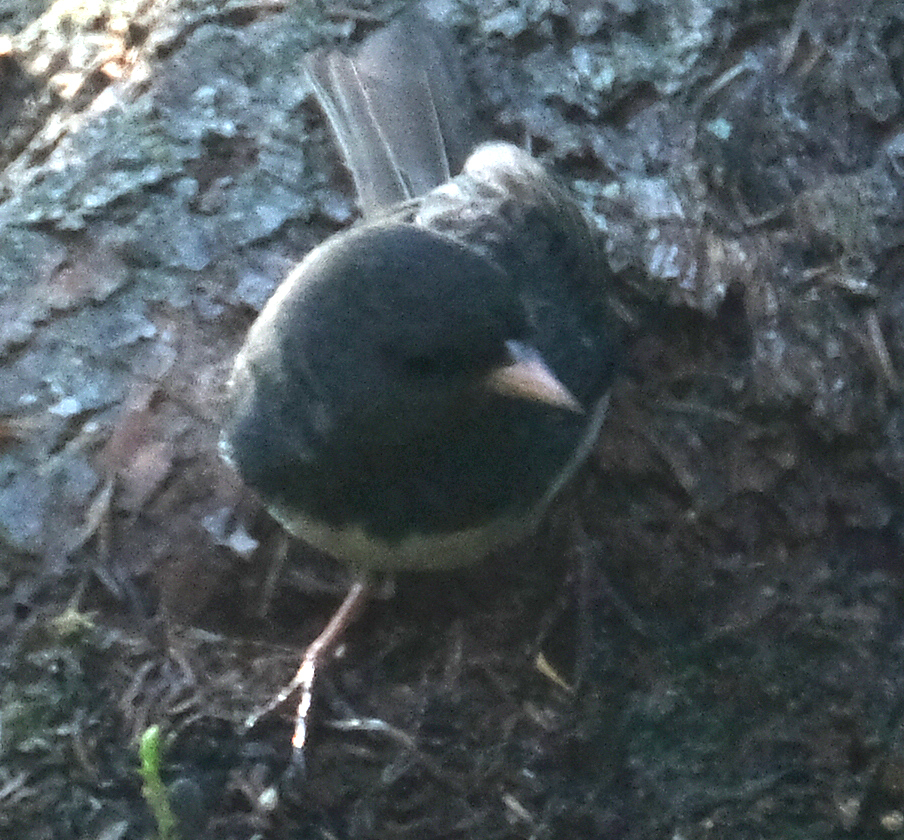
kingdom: Animalia
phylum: Chordata
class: Aves
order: Passeriformes
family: Passerellidae
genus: Junco
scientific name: Junco hyemalis
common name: Dark-eyed junco
